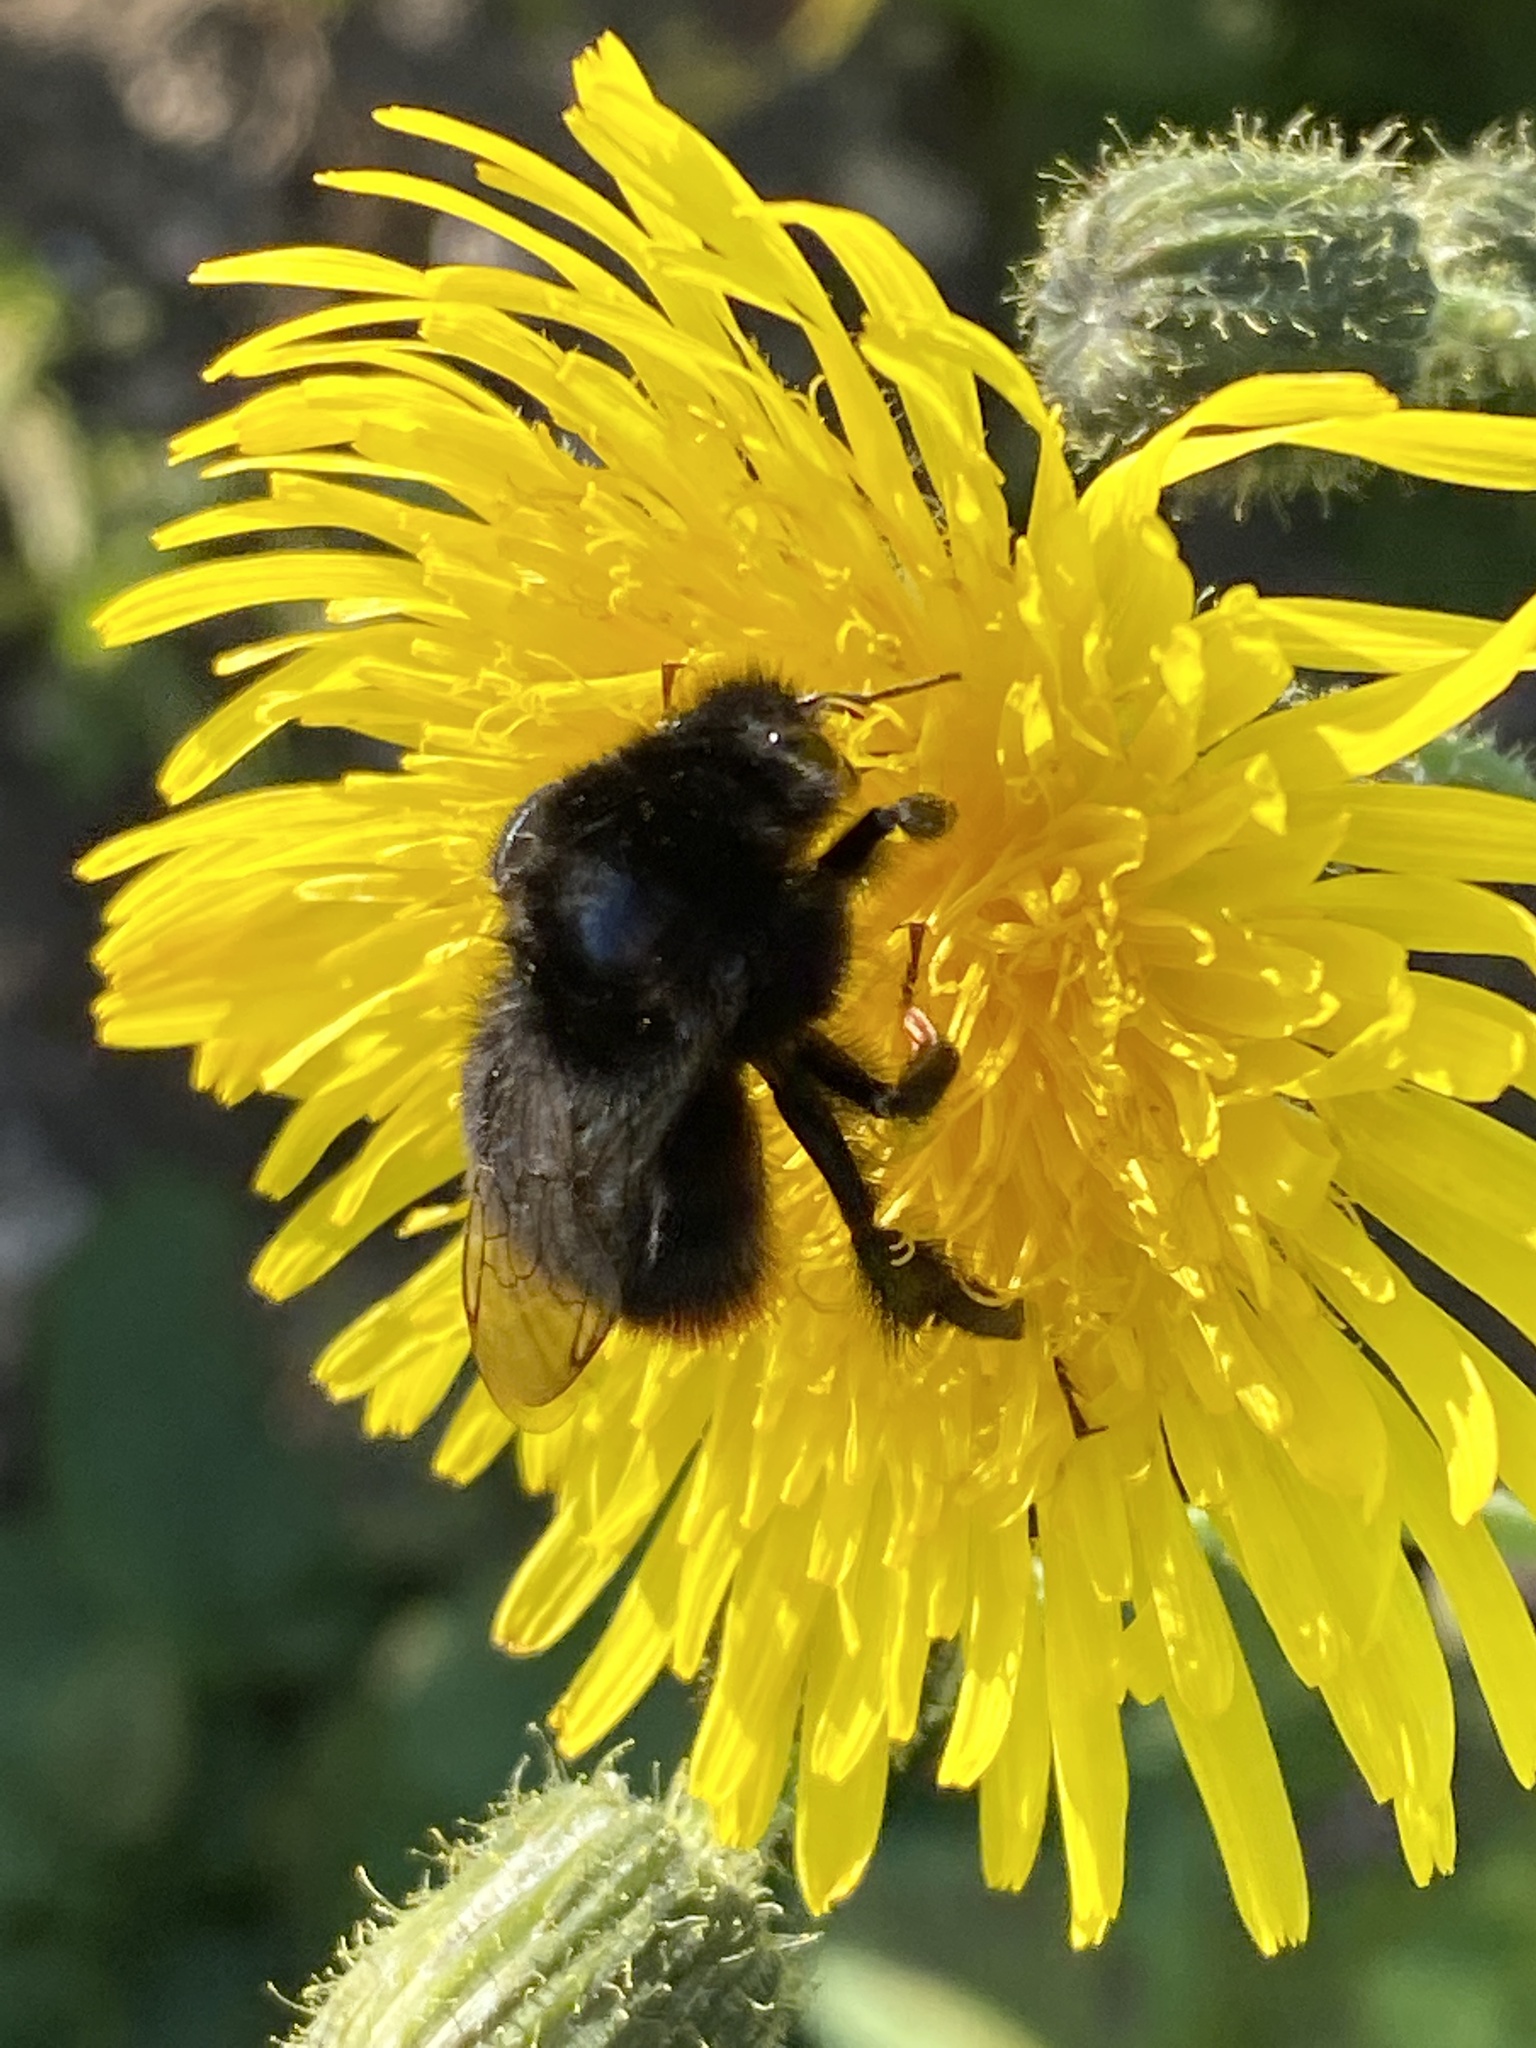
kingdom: Animalia
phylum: Arthropoda
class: Insecta
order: Hymenoptera
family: Apidae
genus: Bombus
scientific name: Bombus lapidarius
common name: Large red-tailed humble-bee
